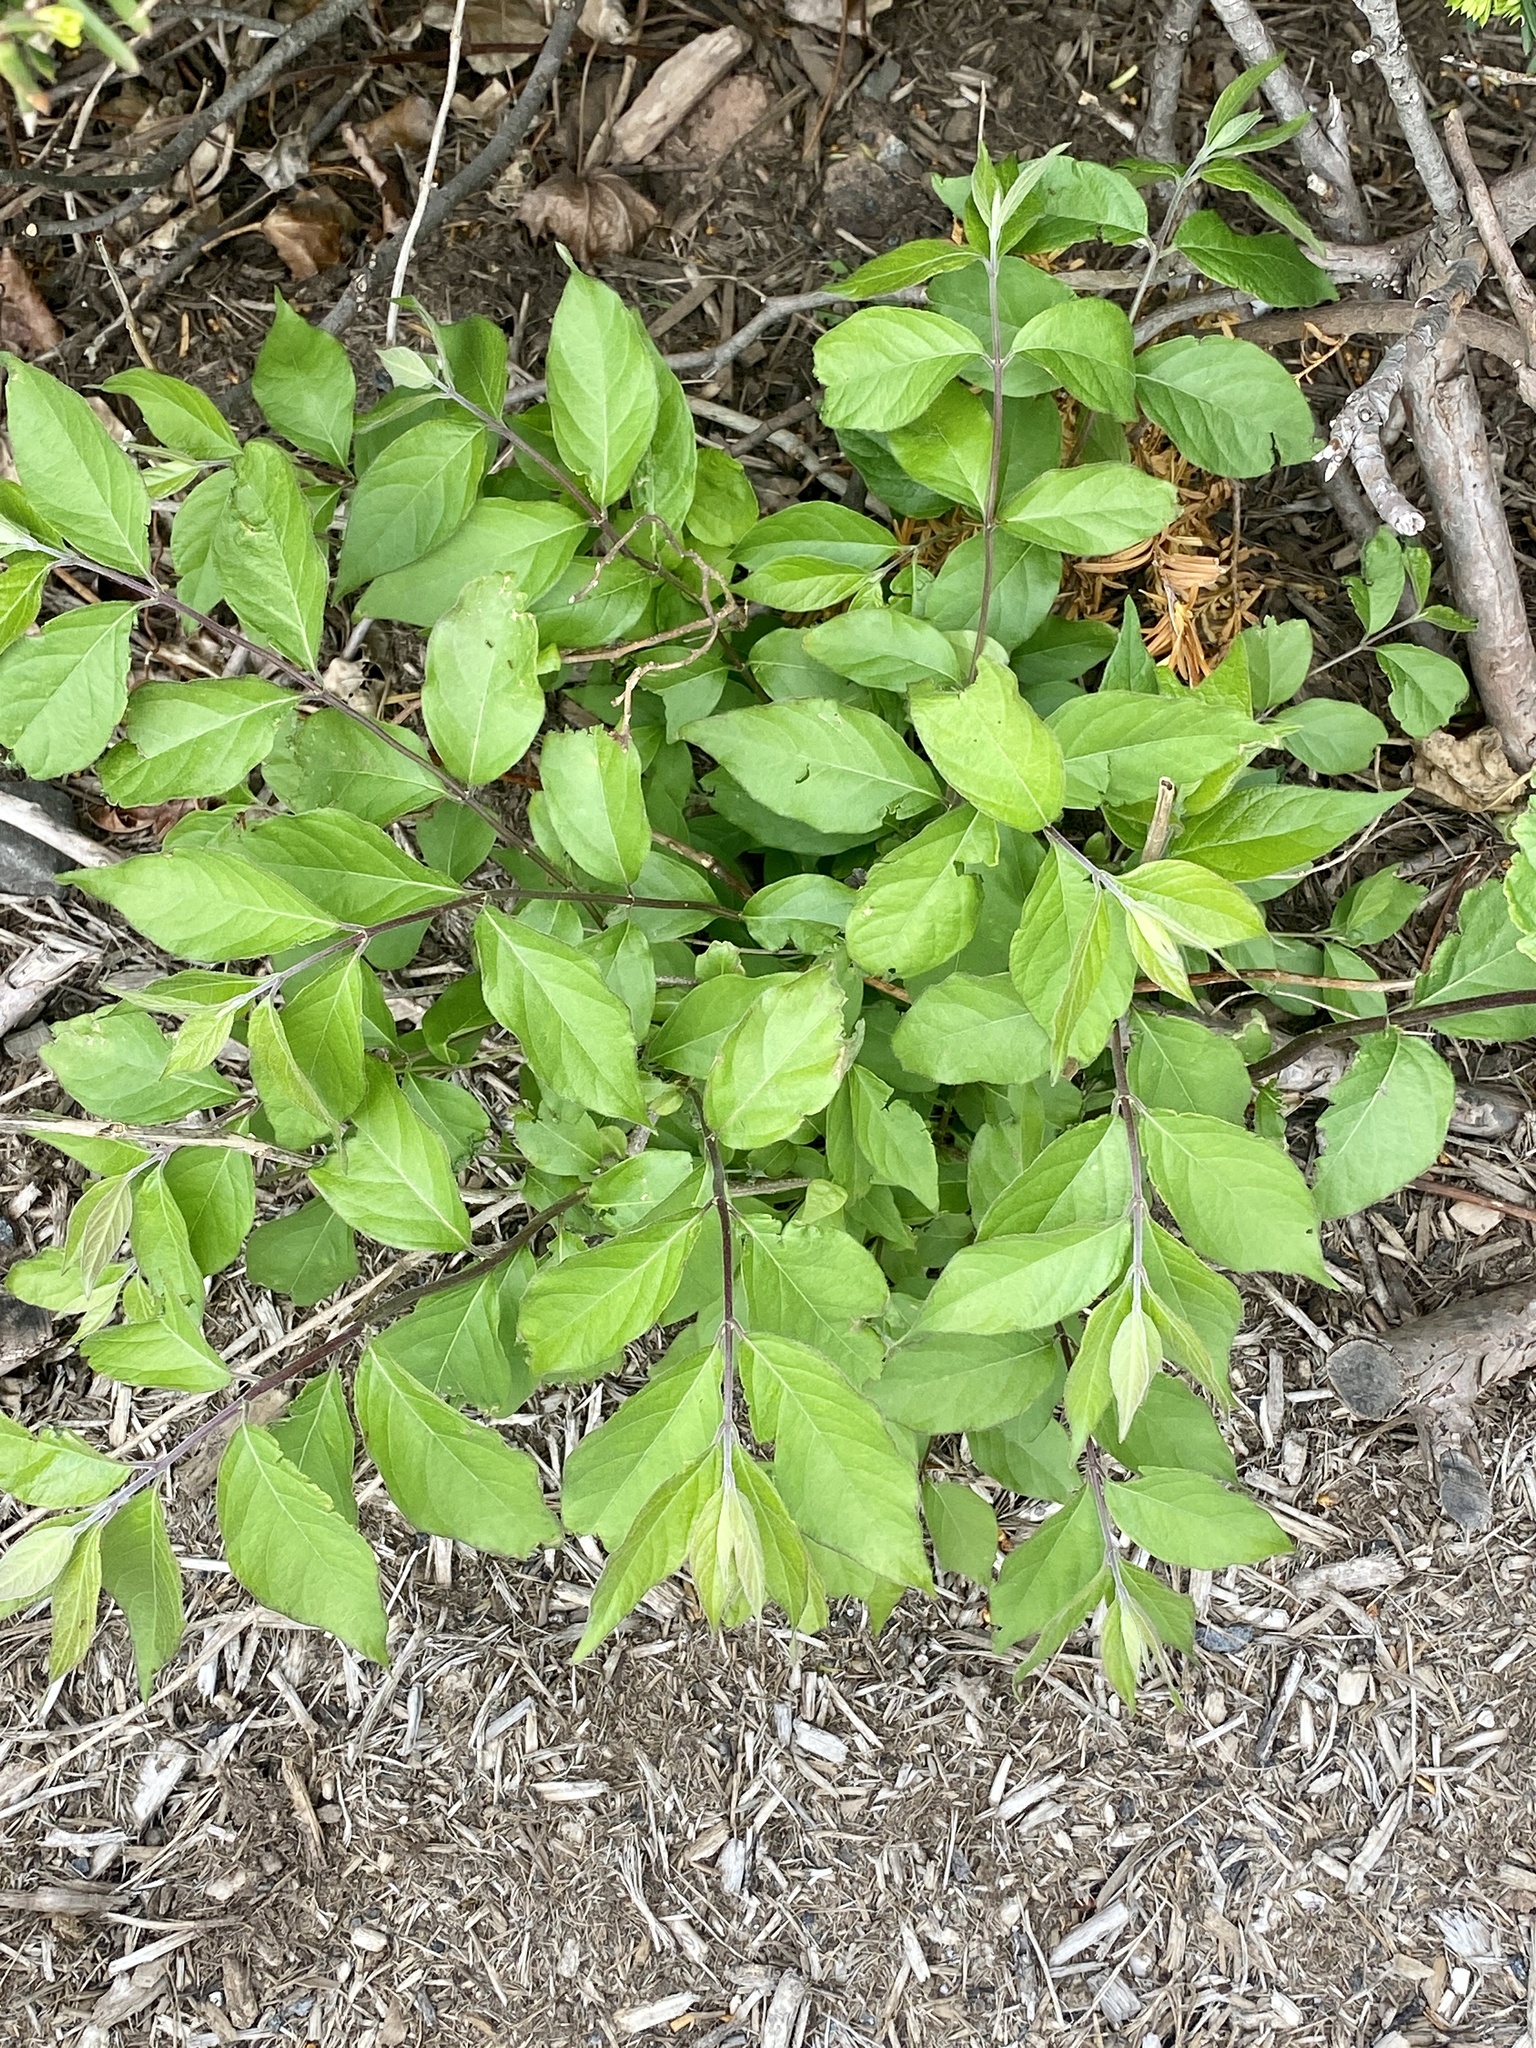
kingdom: Plantae
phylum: Tracheophyta
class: Magnoliopsida
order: Dipsacales
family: Caprifoliaceae
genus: Lonicera
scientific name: Lonicera maackii
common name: Amur honeysuckle
